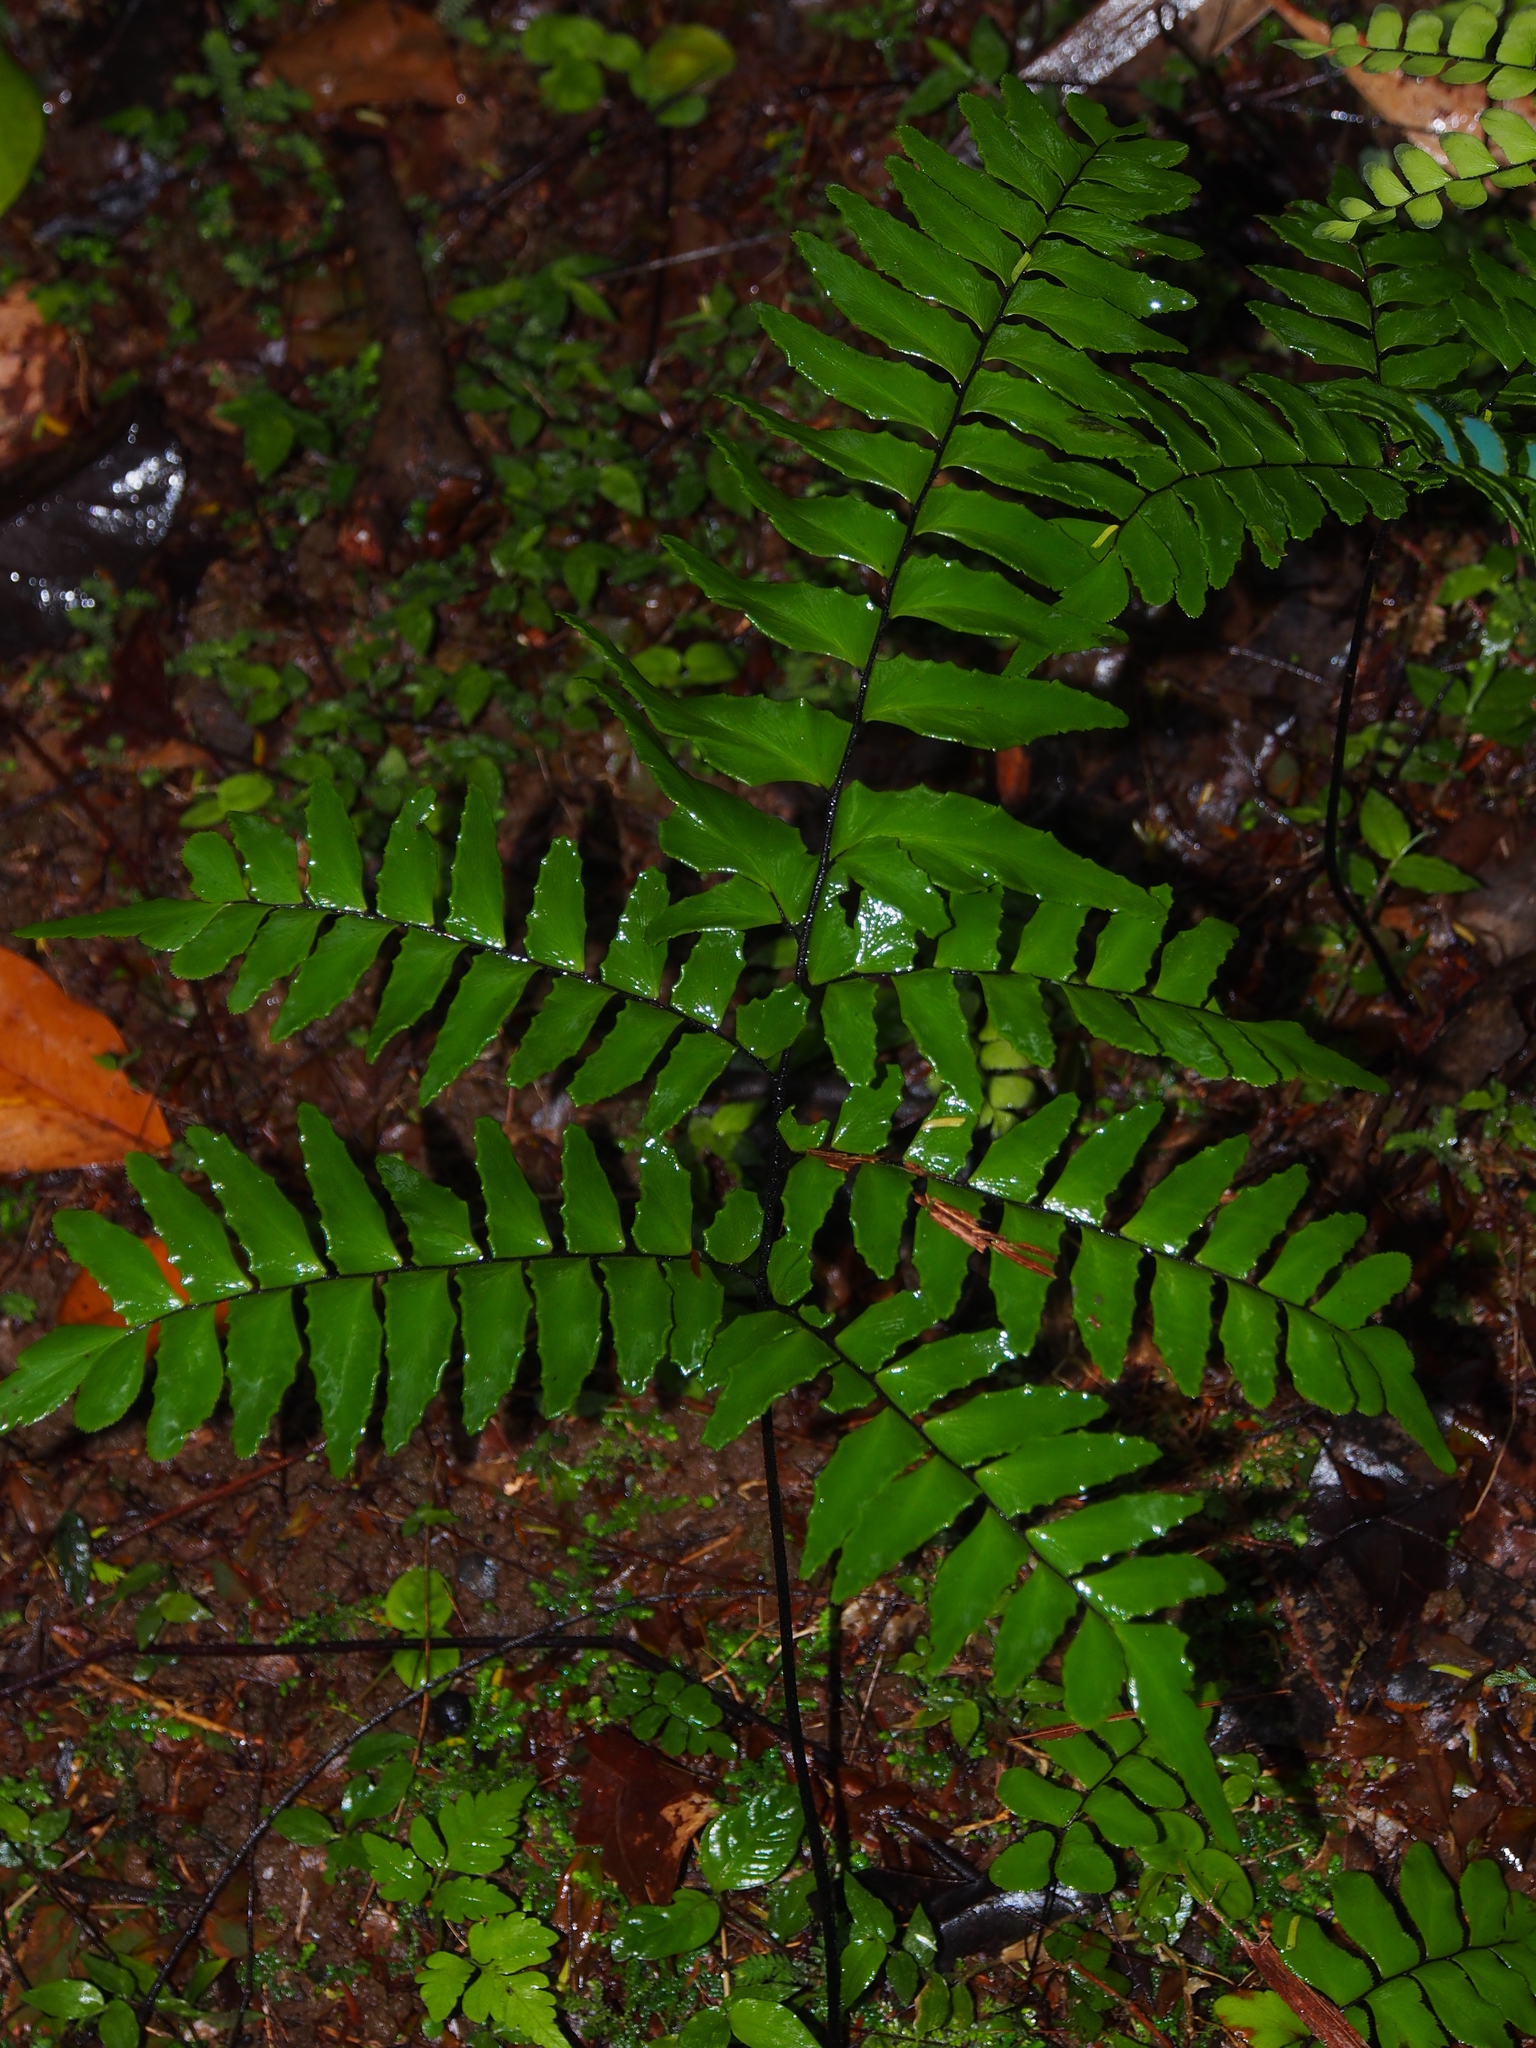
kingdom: Plantae
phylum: Tracheophyta
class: Polypodiopsida
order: Polypodiales
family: Pteridaceae
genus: Adiantum
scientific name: Adiantum latifolium
